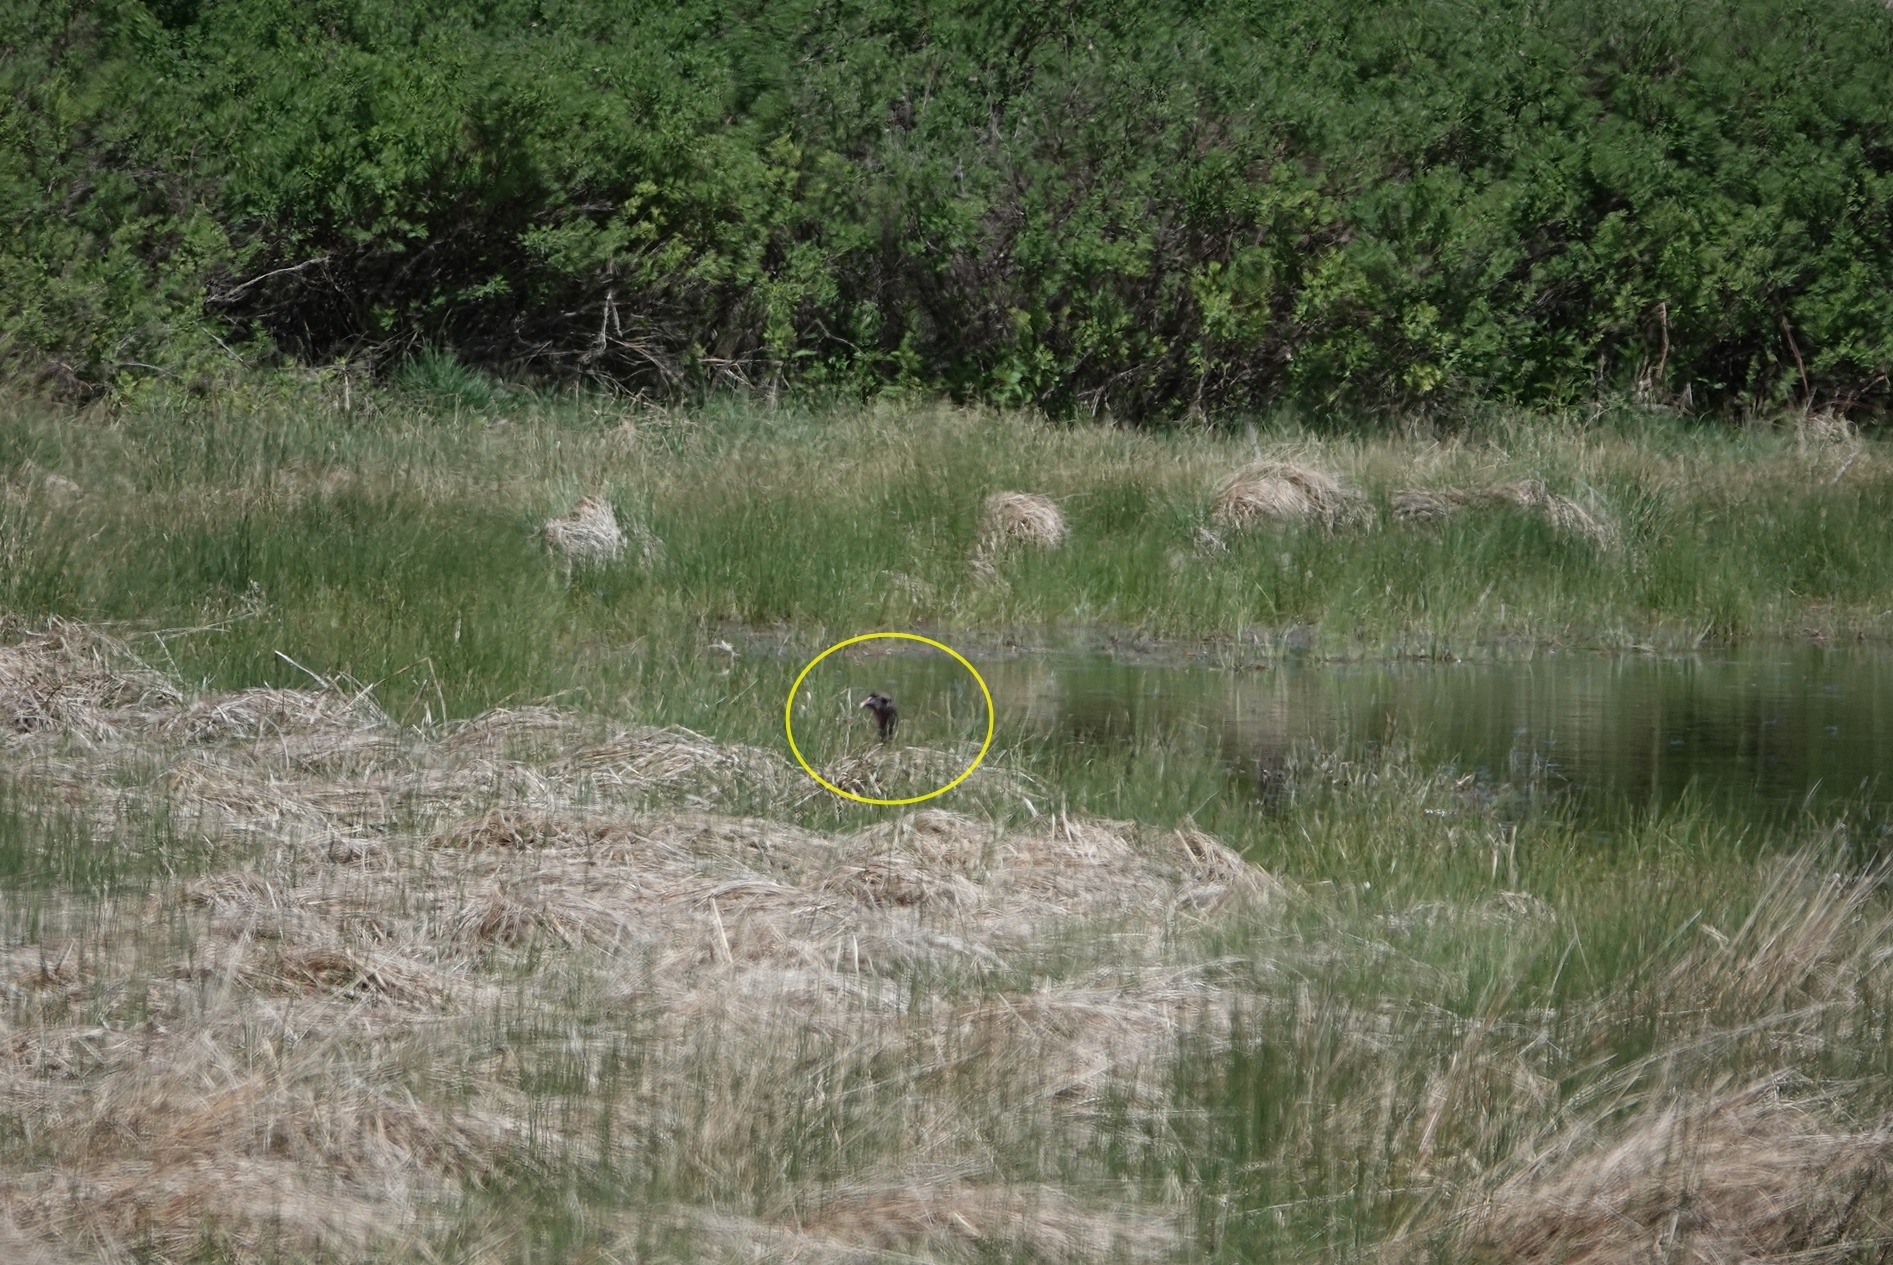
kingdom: Animalia
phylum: Chordata
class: Aves
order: Galliformes
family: Phasianidae
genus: Meleagris
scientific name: Meleagris gallopavo
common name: Wild turkey
